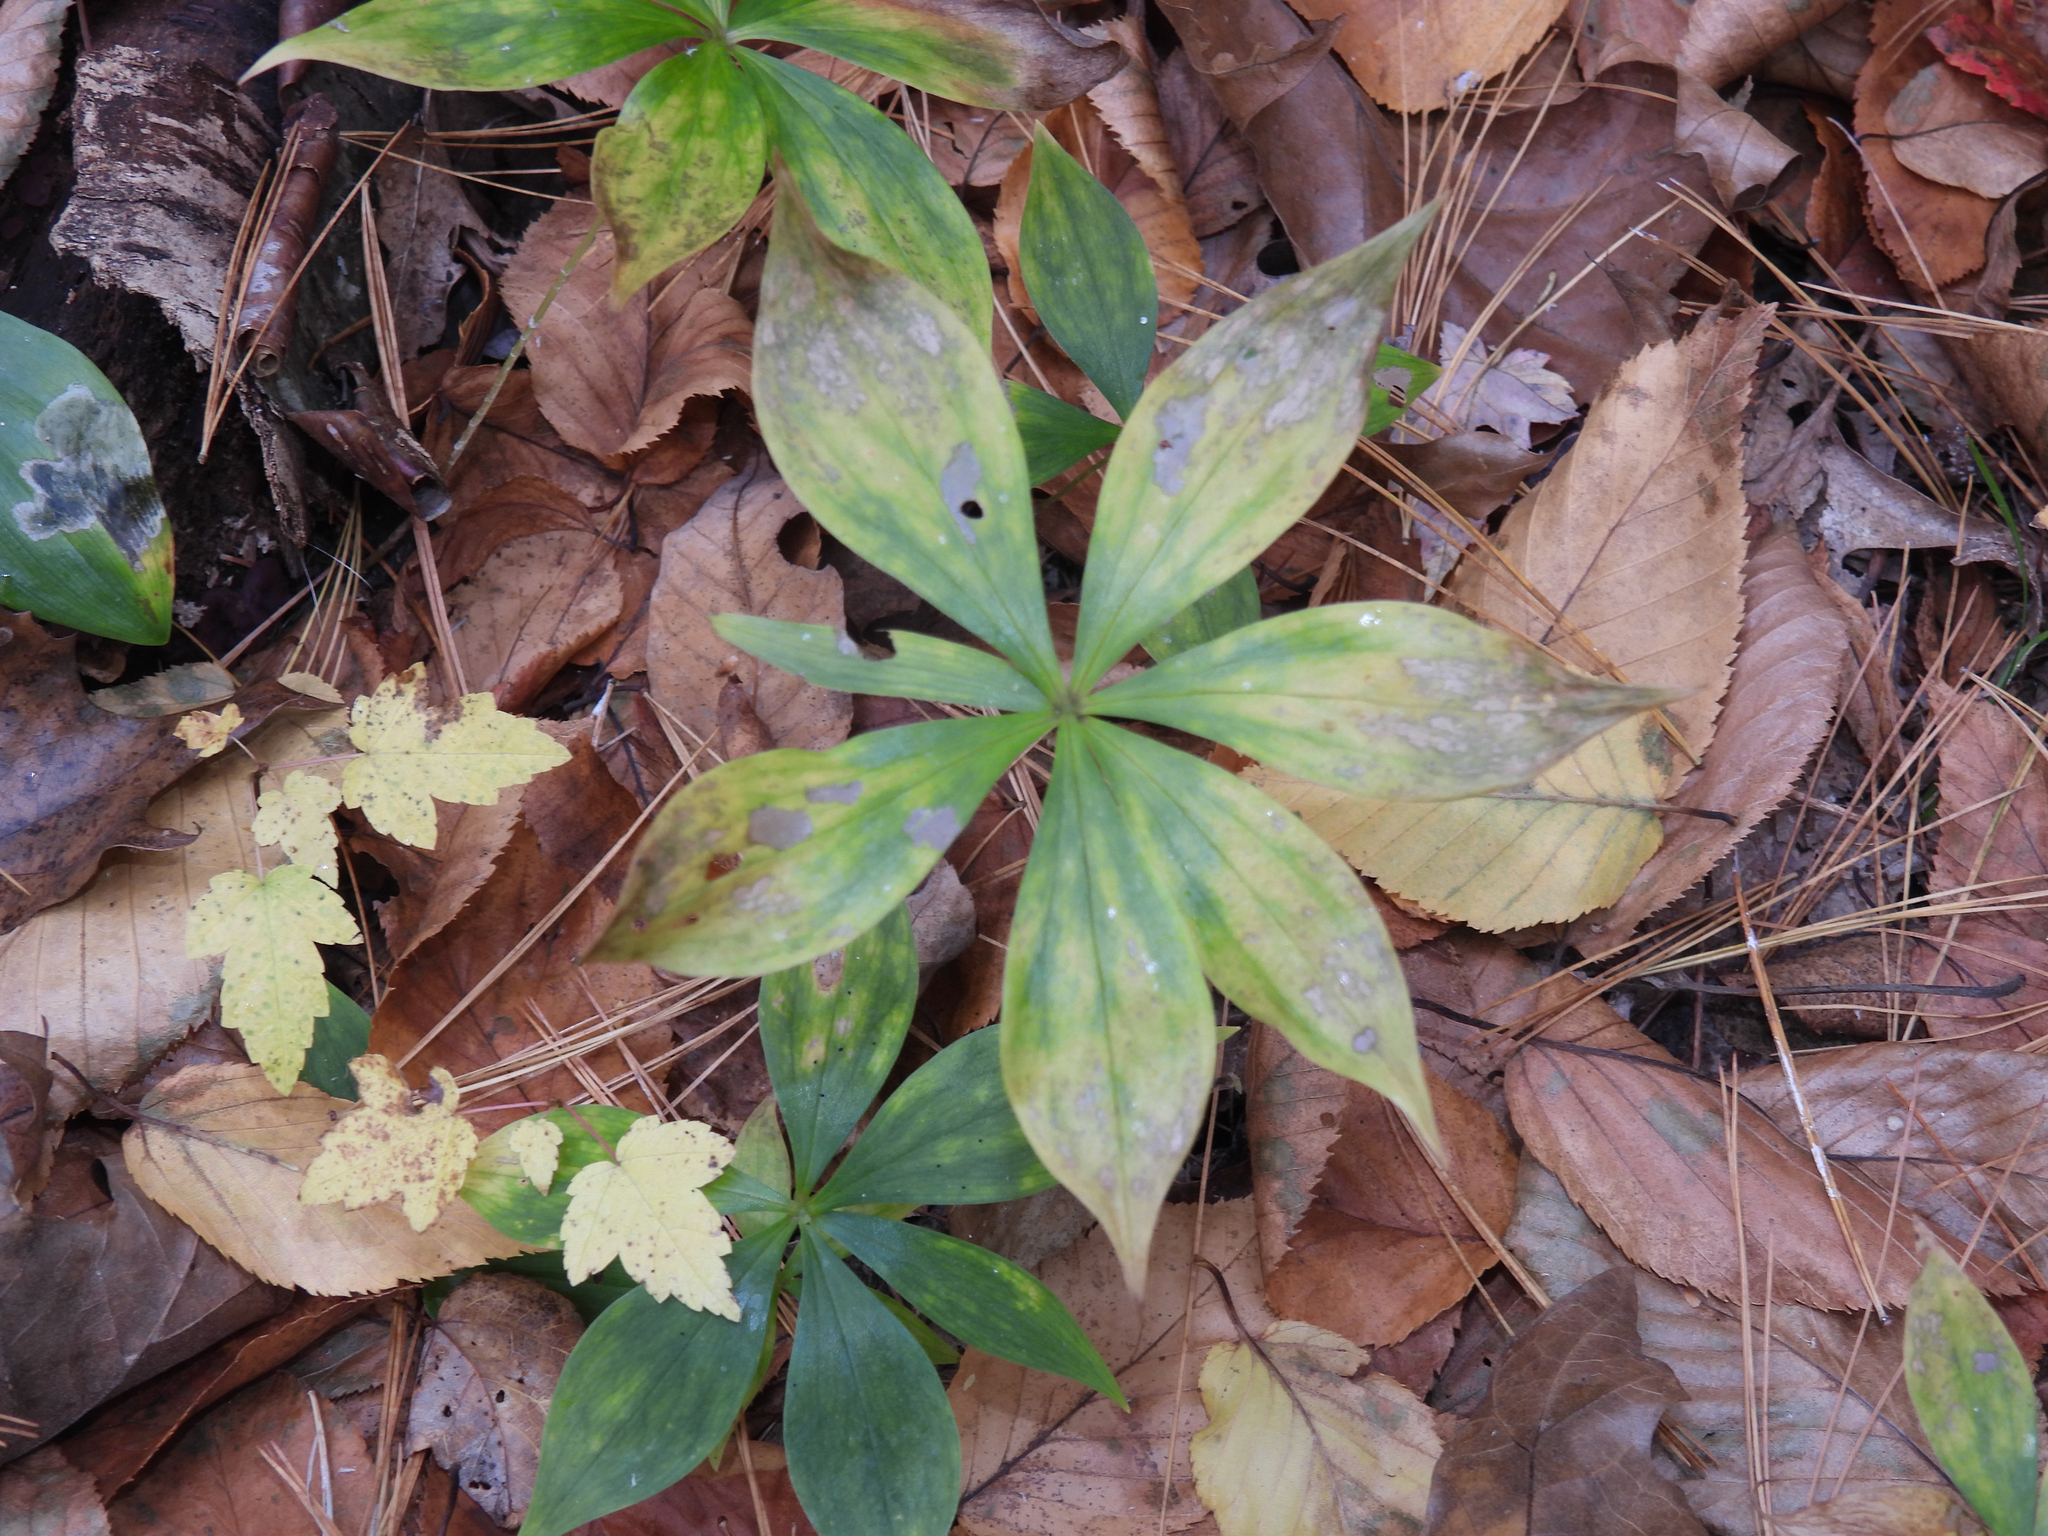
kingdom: Plantae
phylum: Tracheophyta
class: Liliopsida
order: Liliales
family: Liliaceae
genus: Medeola
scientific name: Medeola virginiana
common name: Indian cucumber-root
